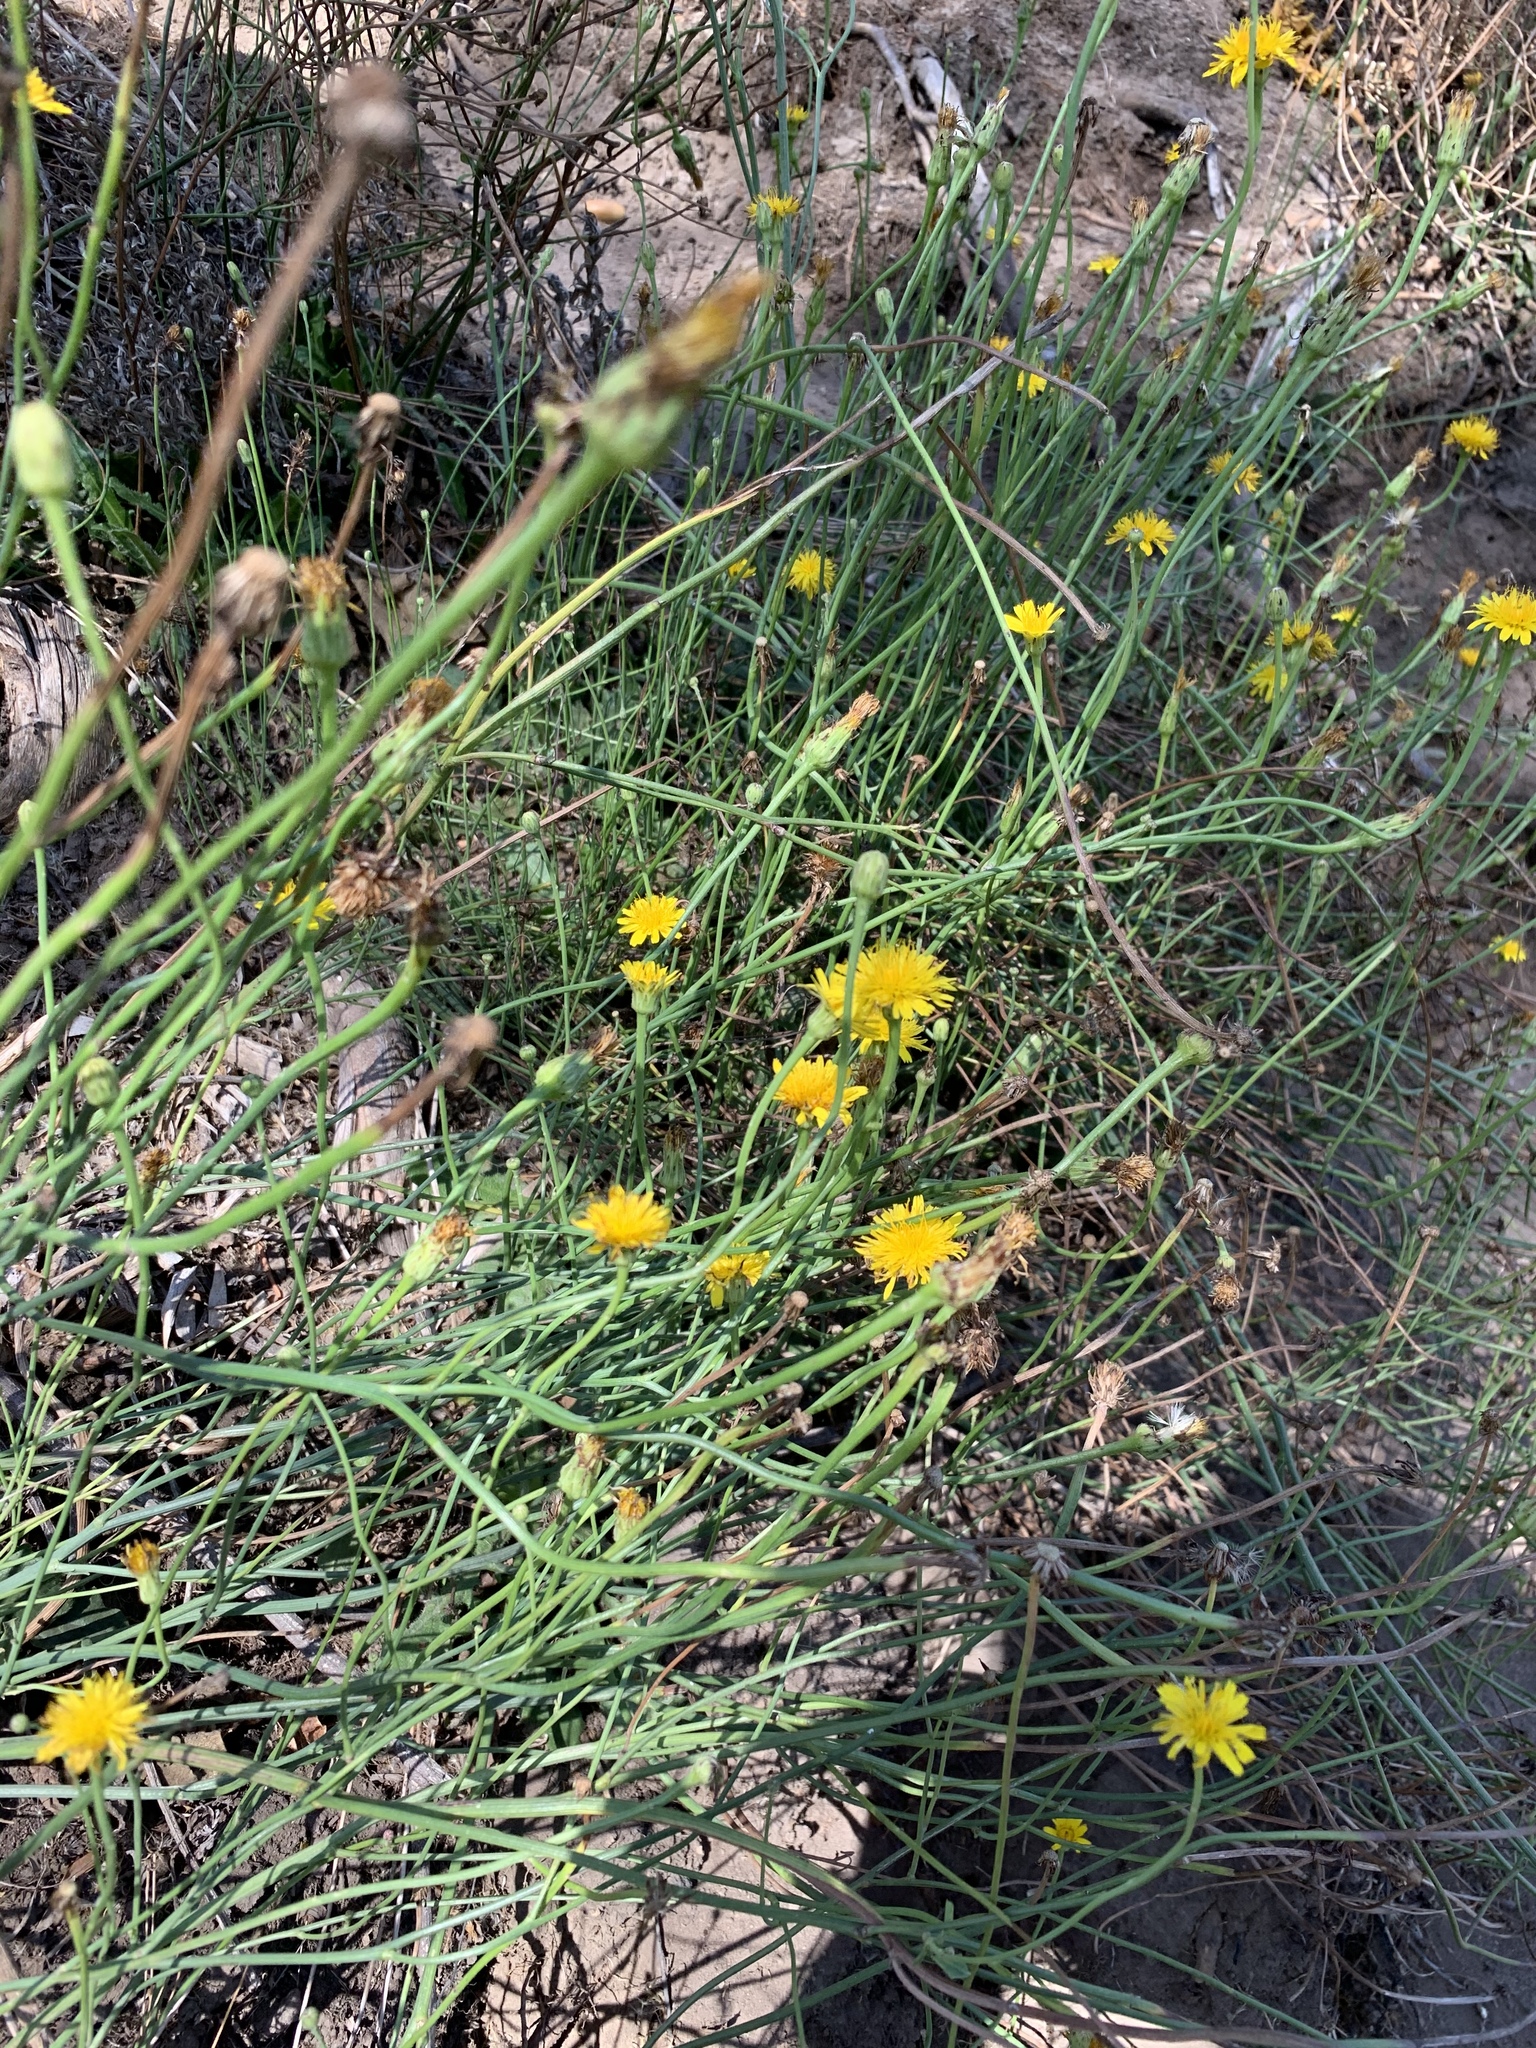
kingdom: Plantae
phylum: Tracheophyta
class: Magnoliopsida
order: Asterales
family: Asteraceae
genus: Hypochaeris
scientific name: Hypochaeris radicata
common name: Flatweed
